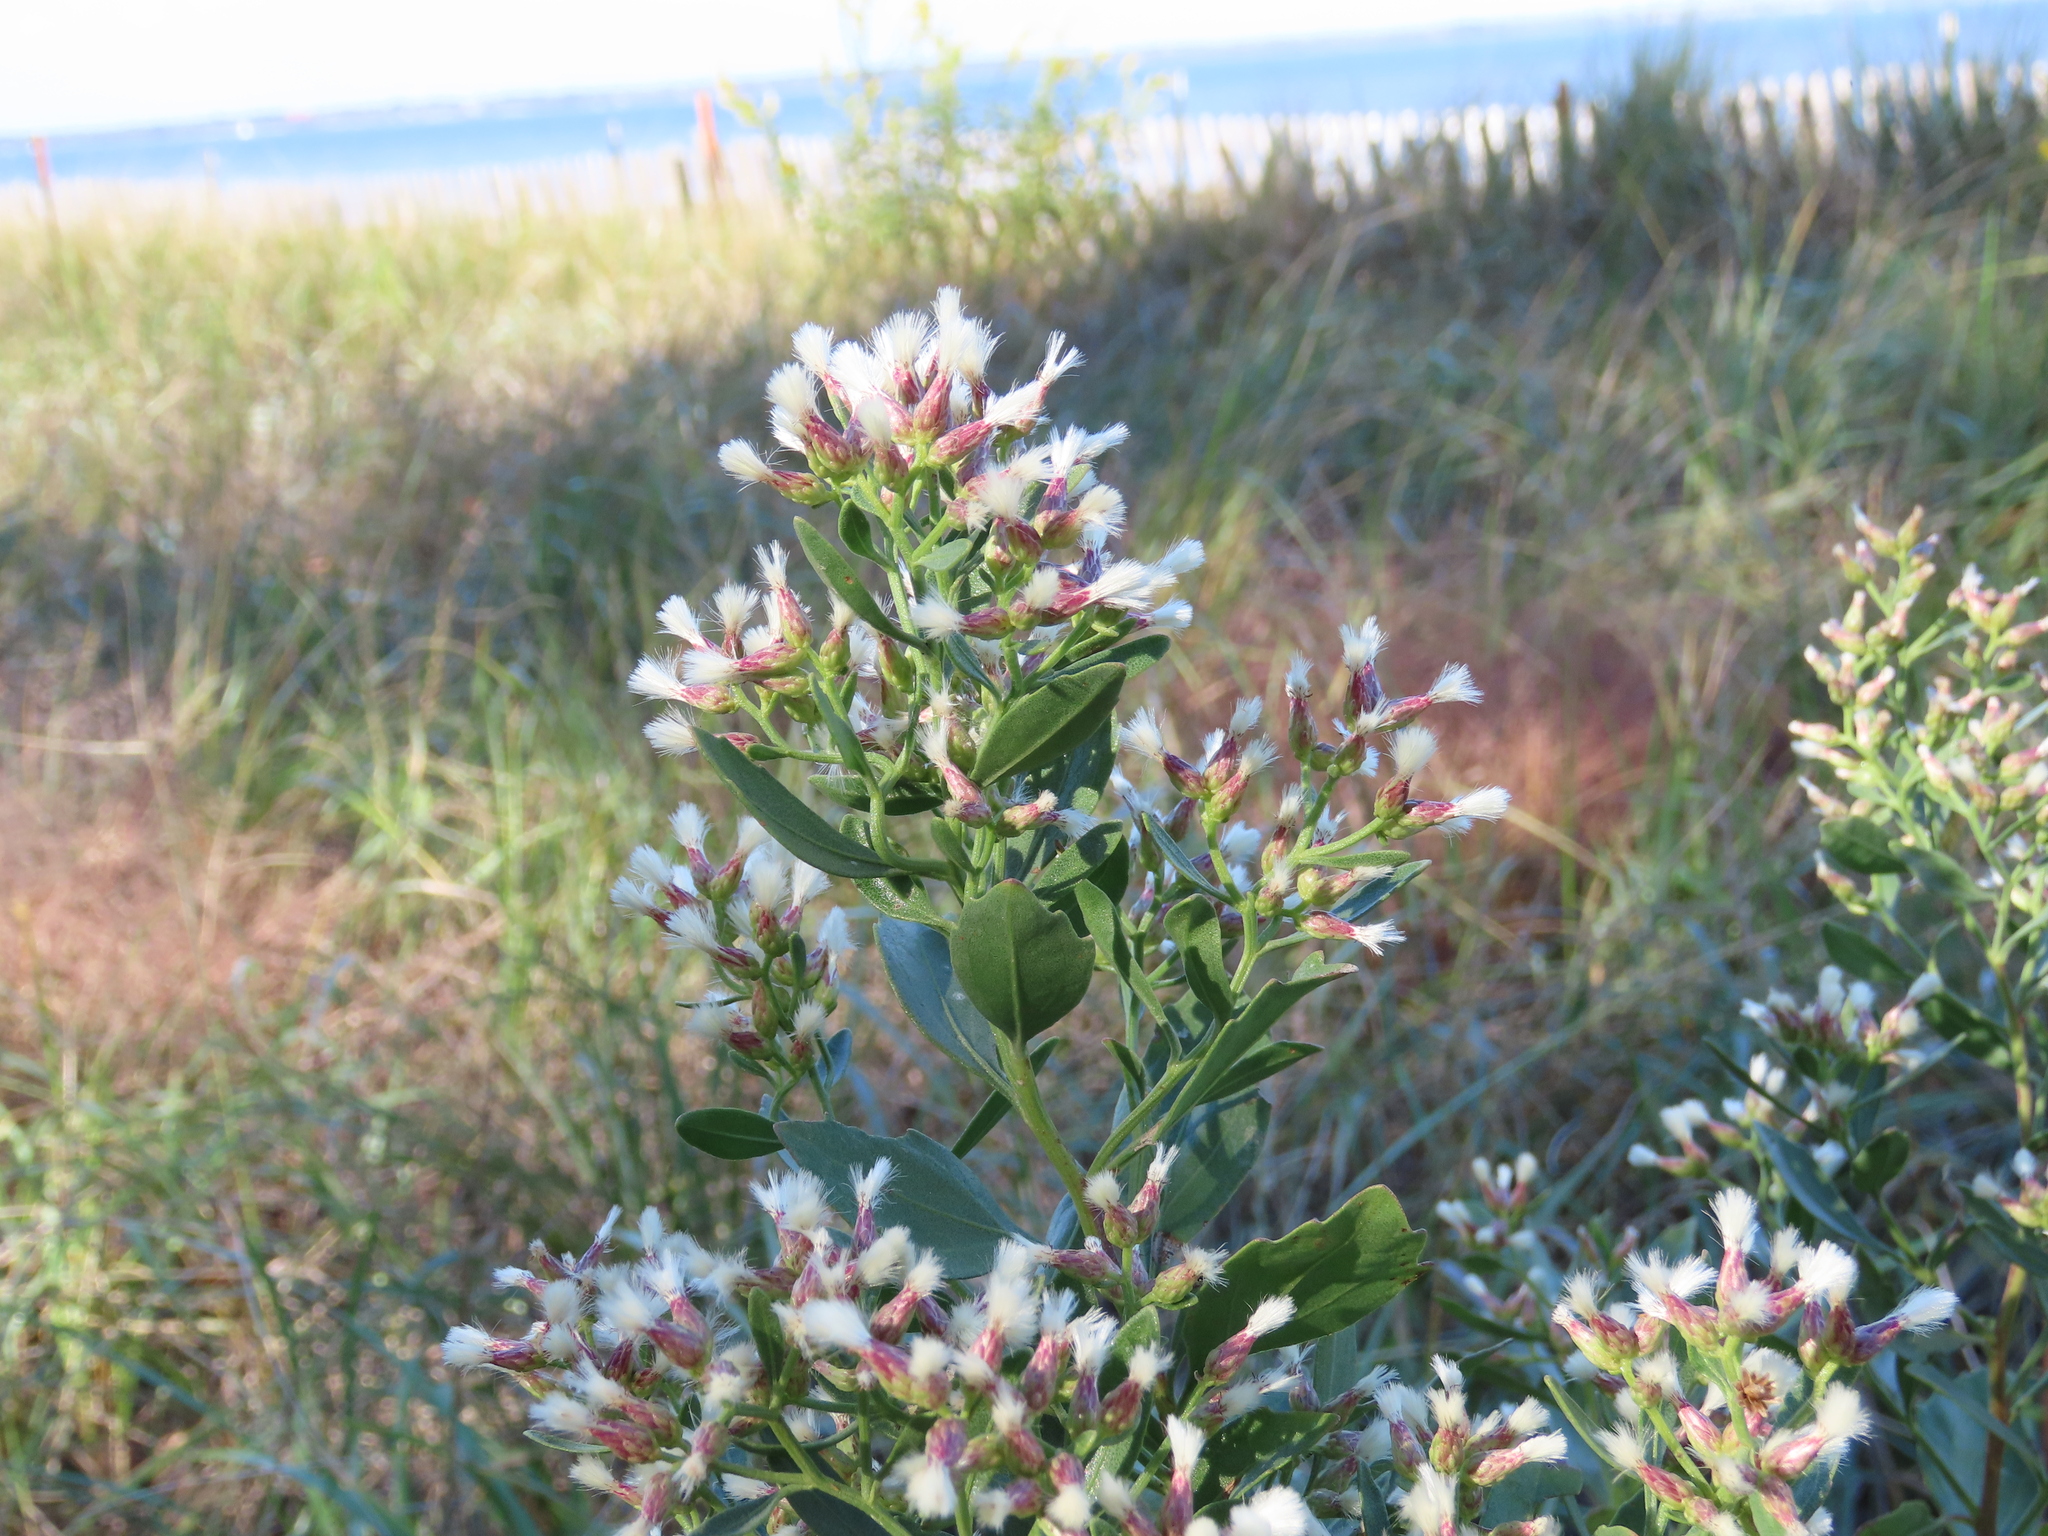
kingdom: Plantae
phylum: Tracheophyta
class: Magnoliopsida
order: Asterales
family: Asteraceae
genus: Baccharis
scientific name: Baccharis halimifolia
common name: Eastern baccharis
